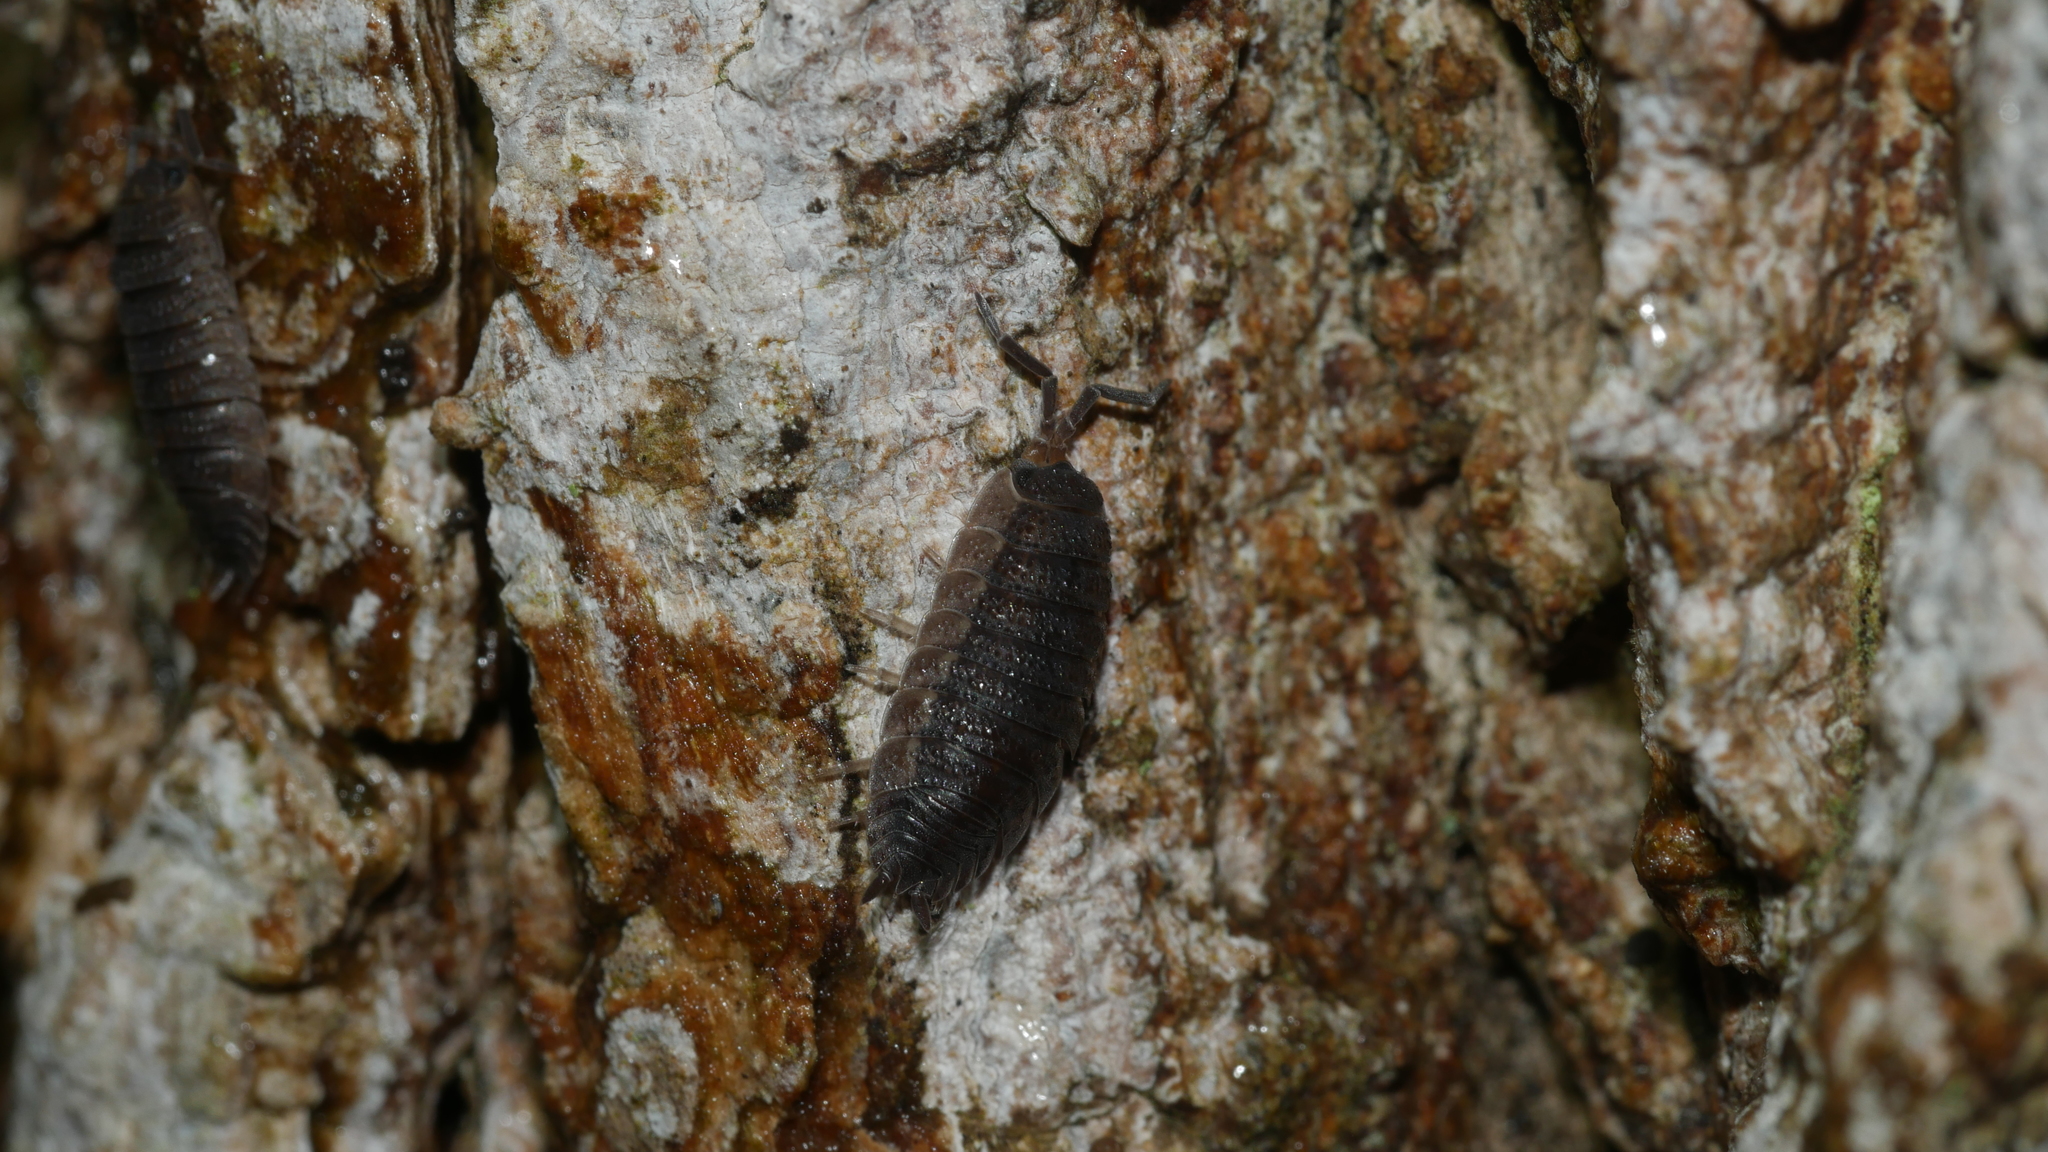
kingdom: Animalia
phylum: Arthropoda
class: Malacostraca
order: Isopoda
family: Porcellionidae
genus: Porcellio
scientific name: Porcellio scaber
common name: Common rough woodlouse
